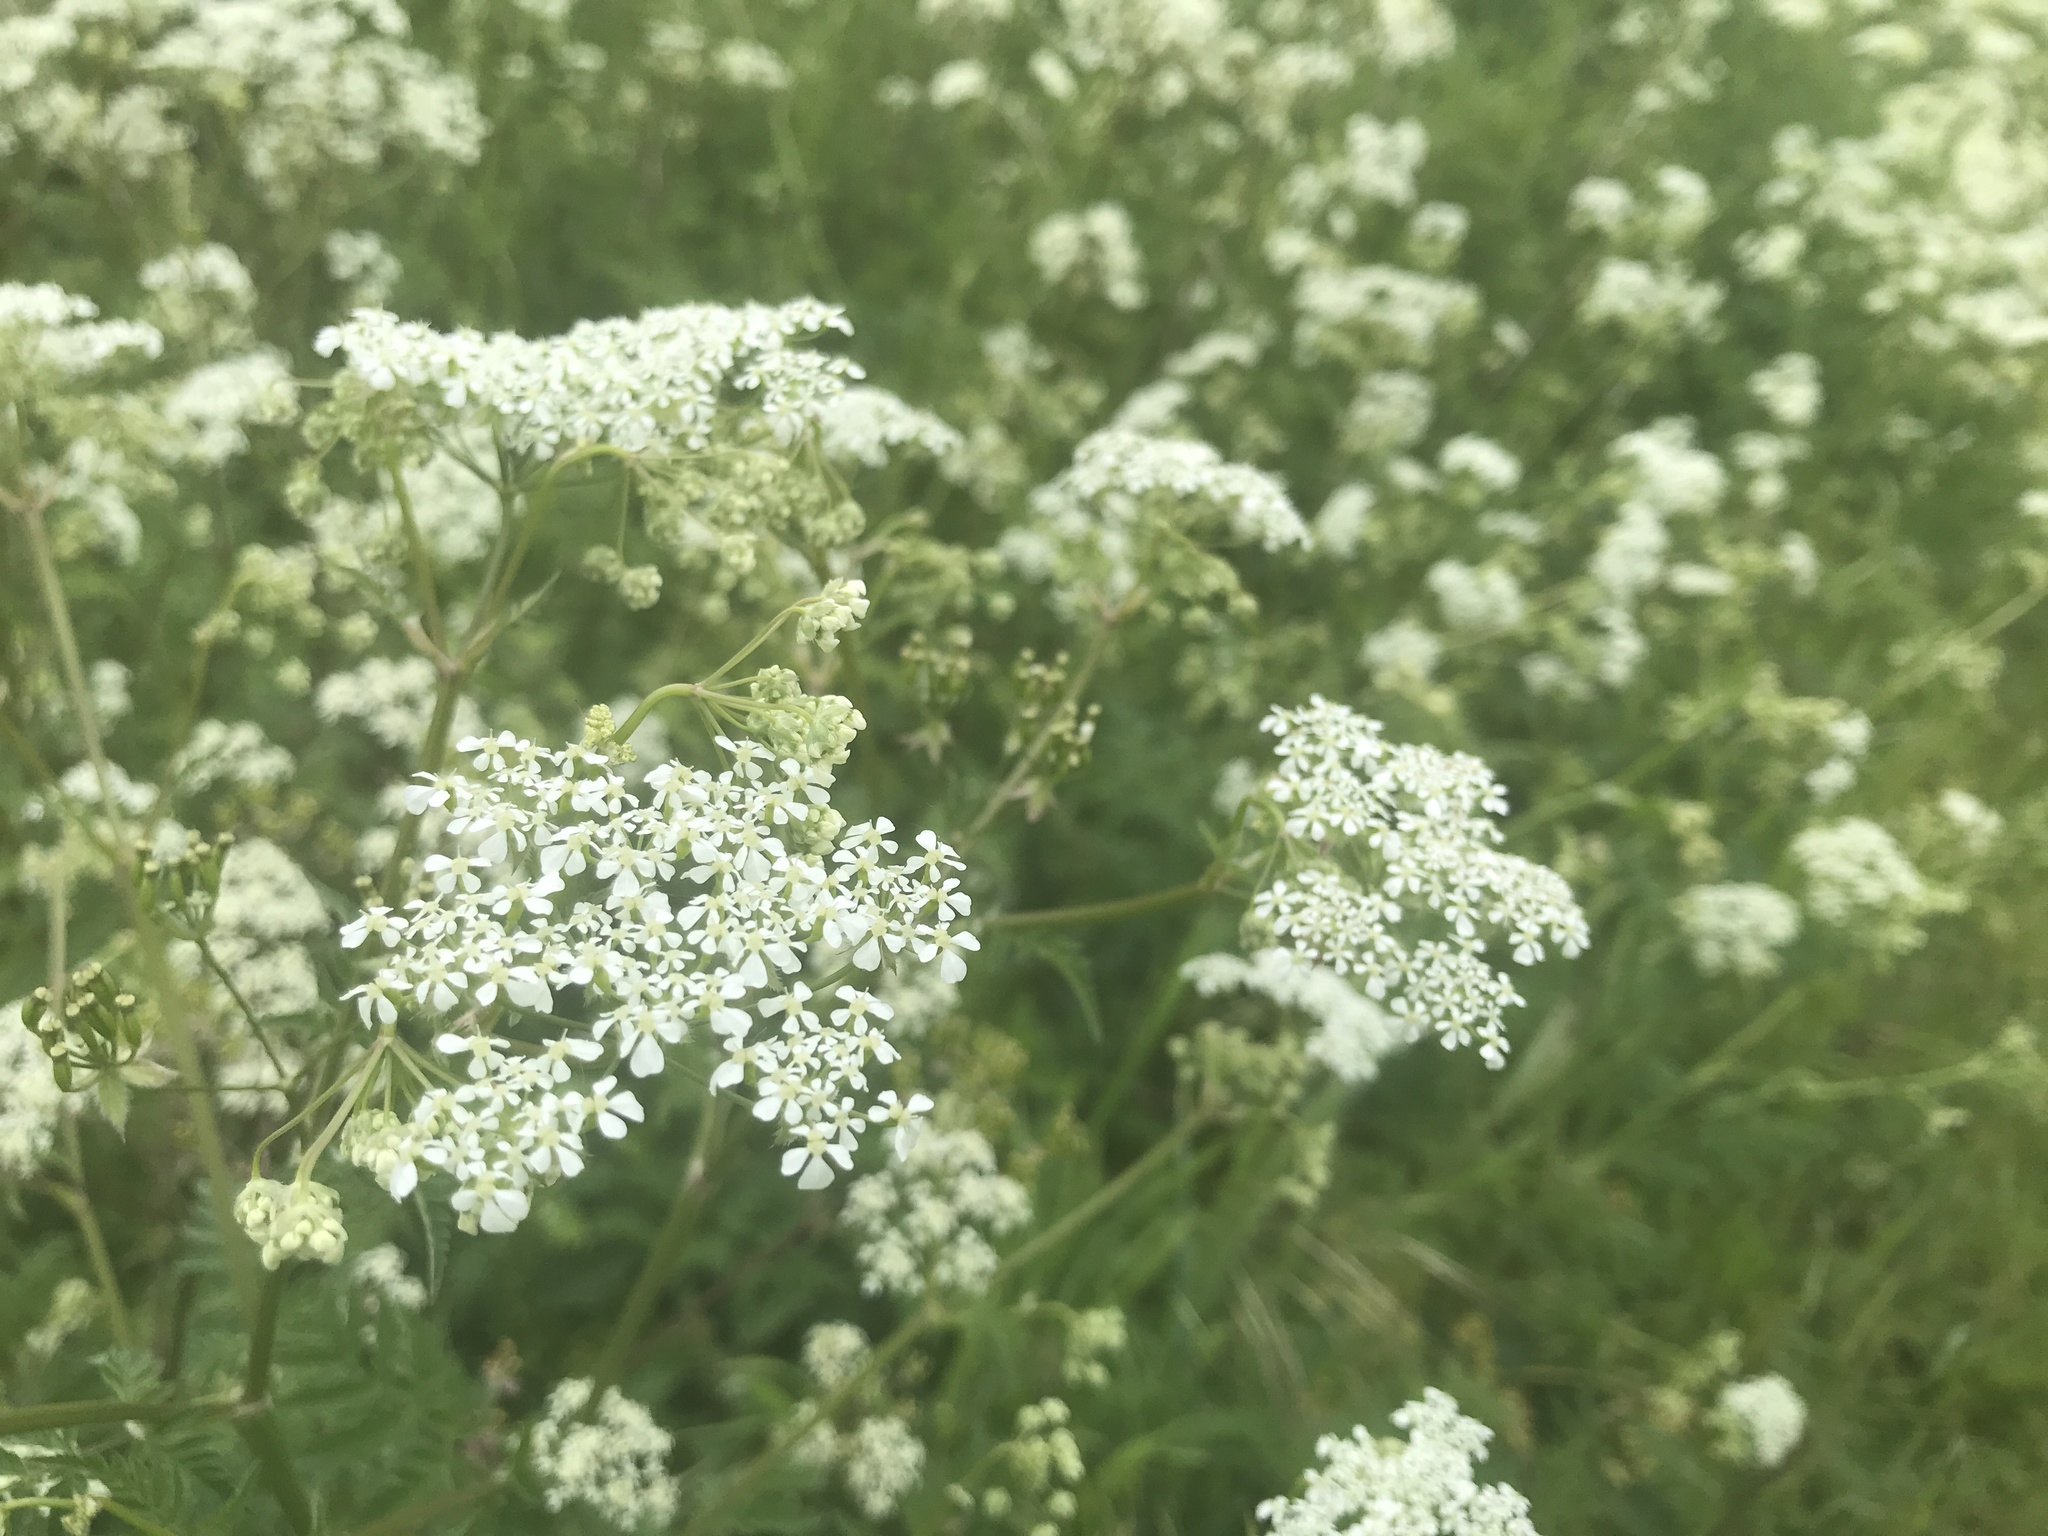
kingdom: Plantae
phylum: Tracheophyta
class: Magnoliopsida
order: Apiales
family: Apiaceae
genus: Anthriscus
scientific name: Anthriscus sylvestris
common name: Cow parsley
